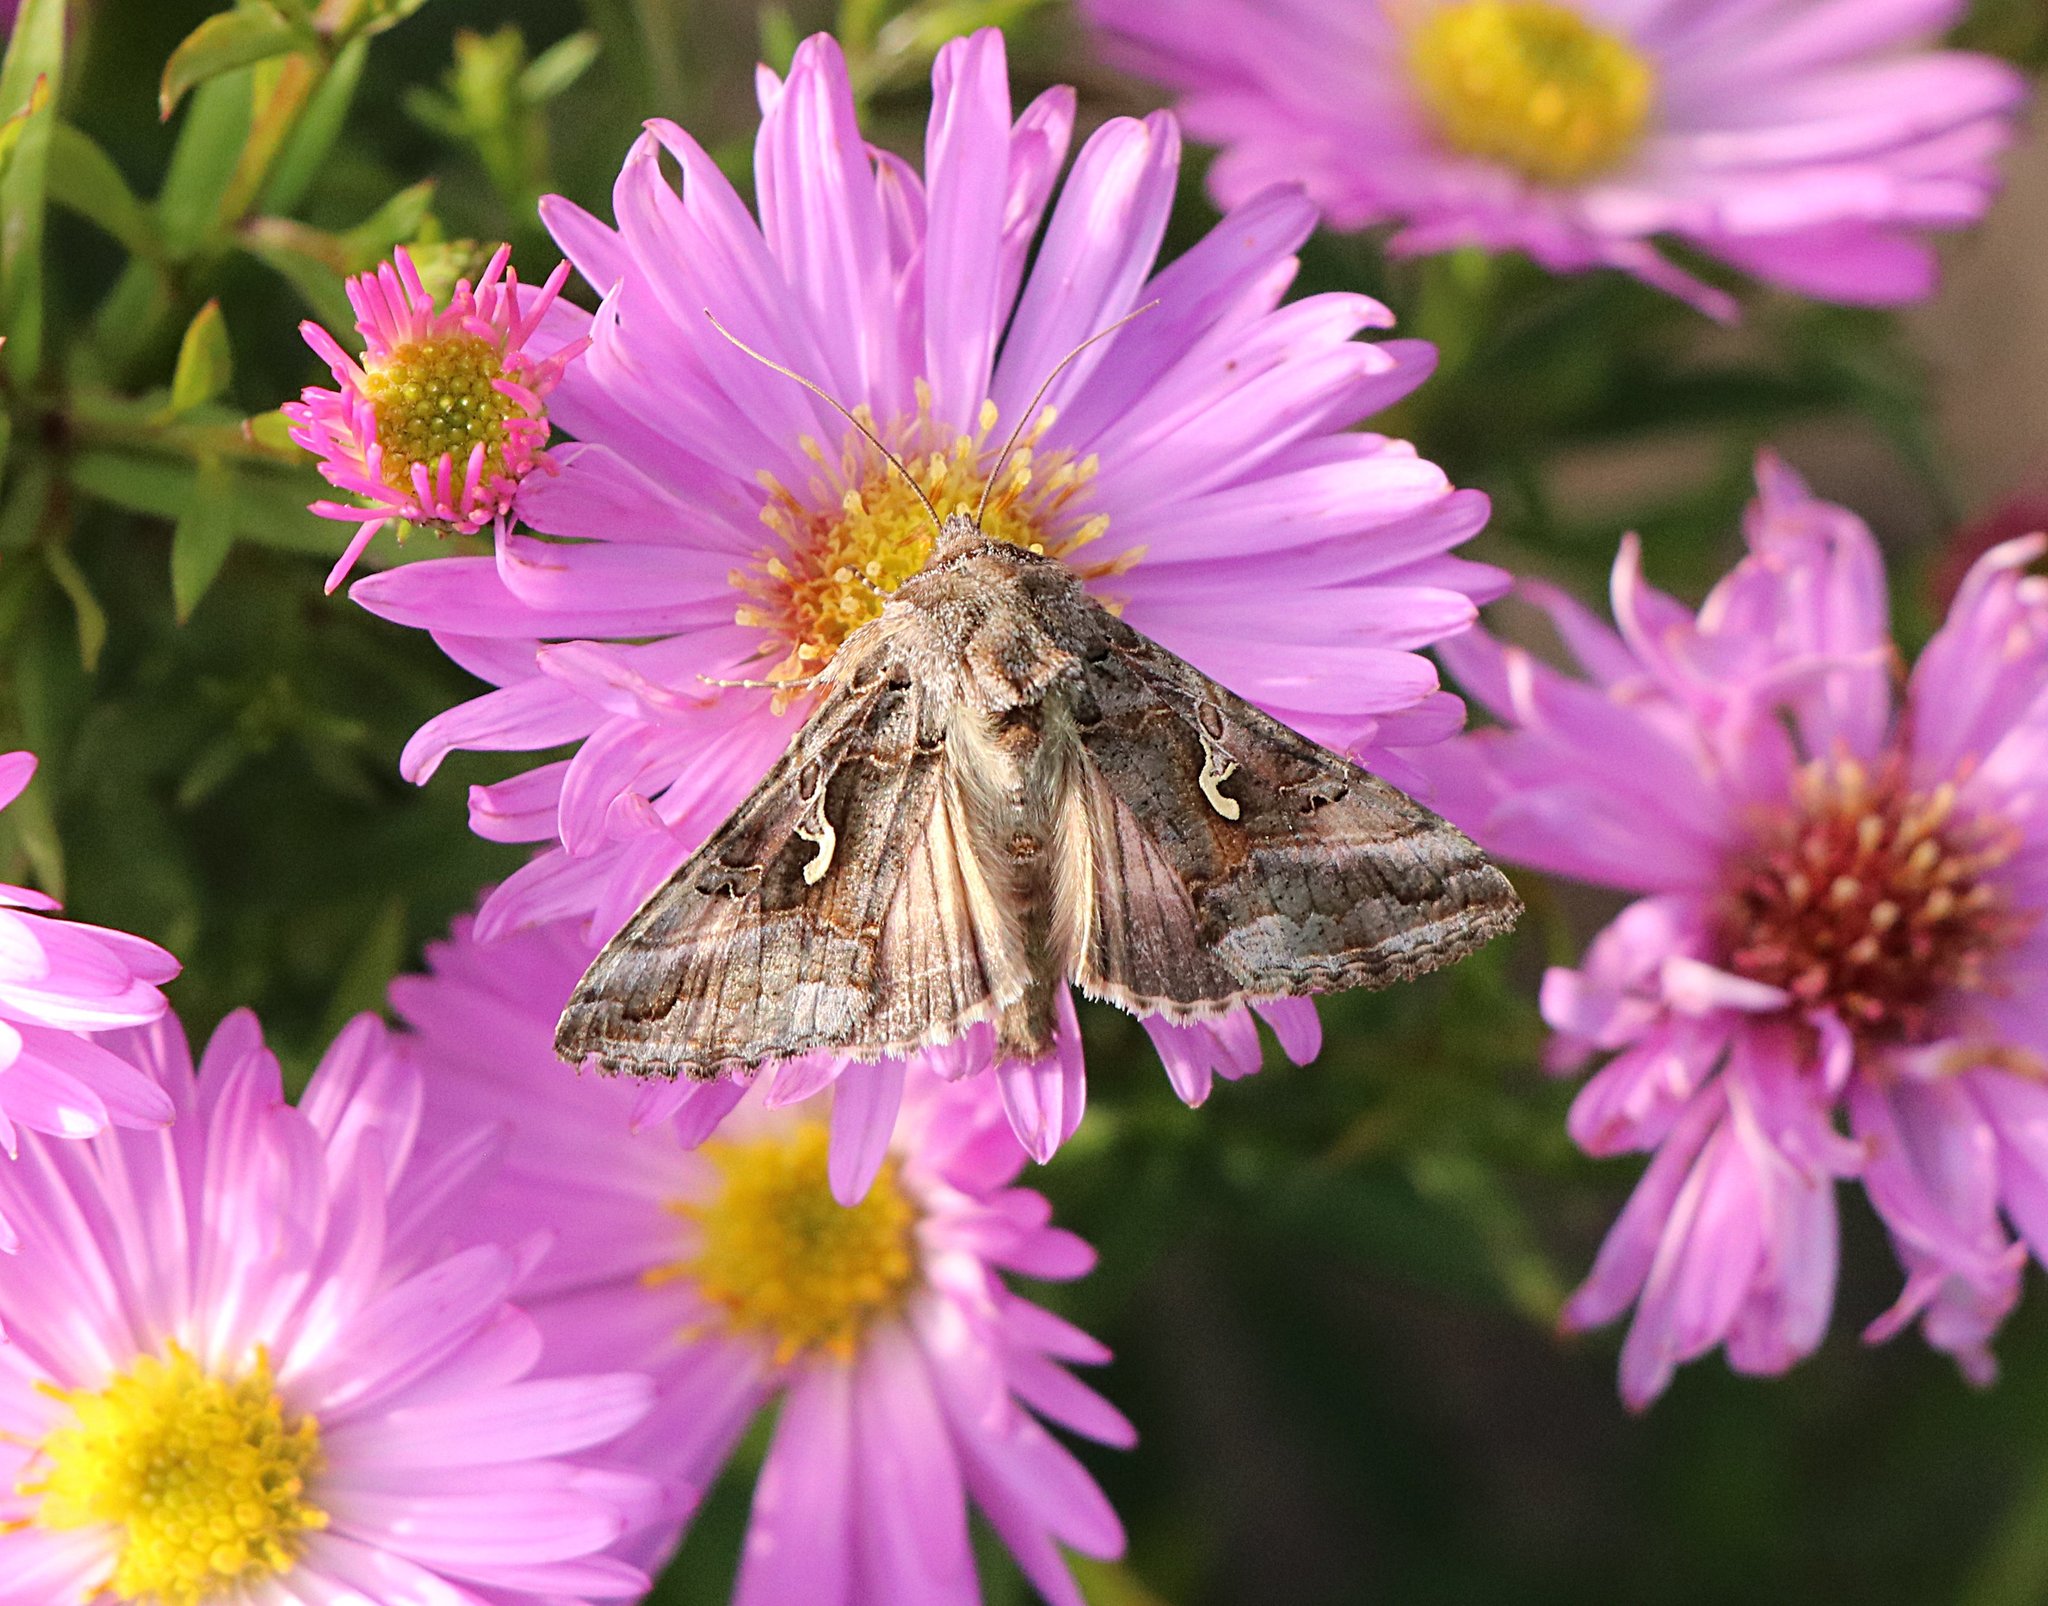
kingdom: Animalia
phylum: Arthropoda
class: Insecta
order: Lepidoptera
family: Noctuidae
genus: Autographa
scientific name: Autographa gamma
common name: Silver y
